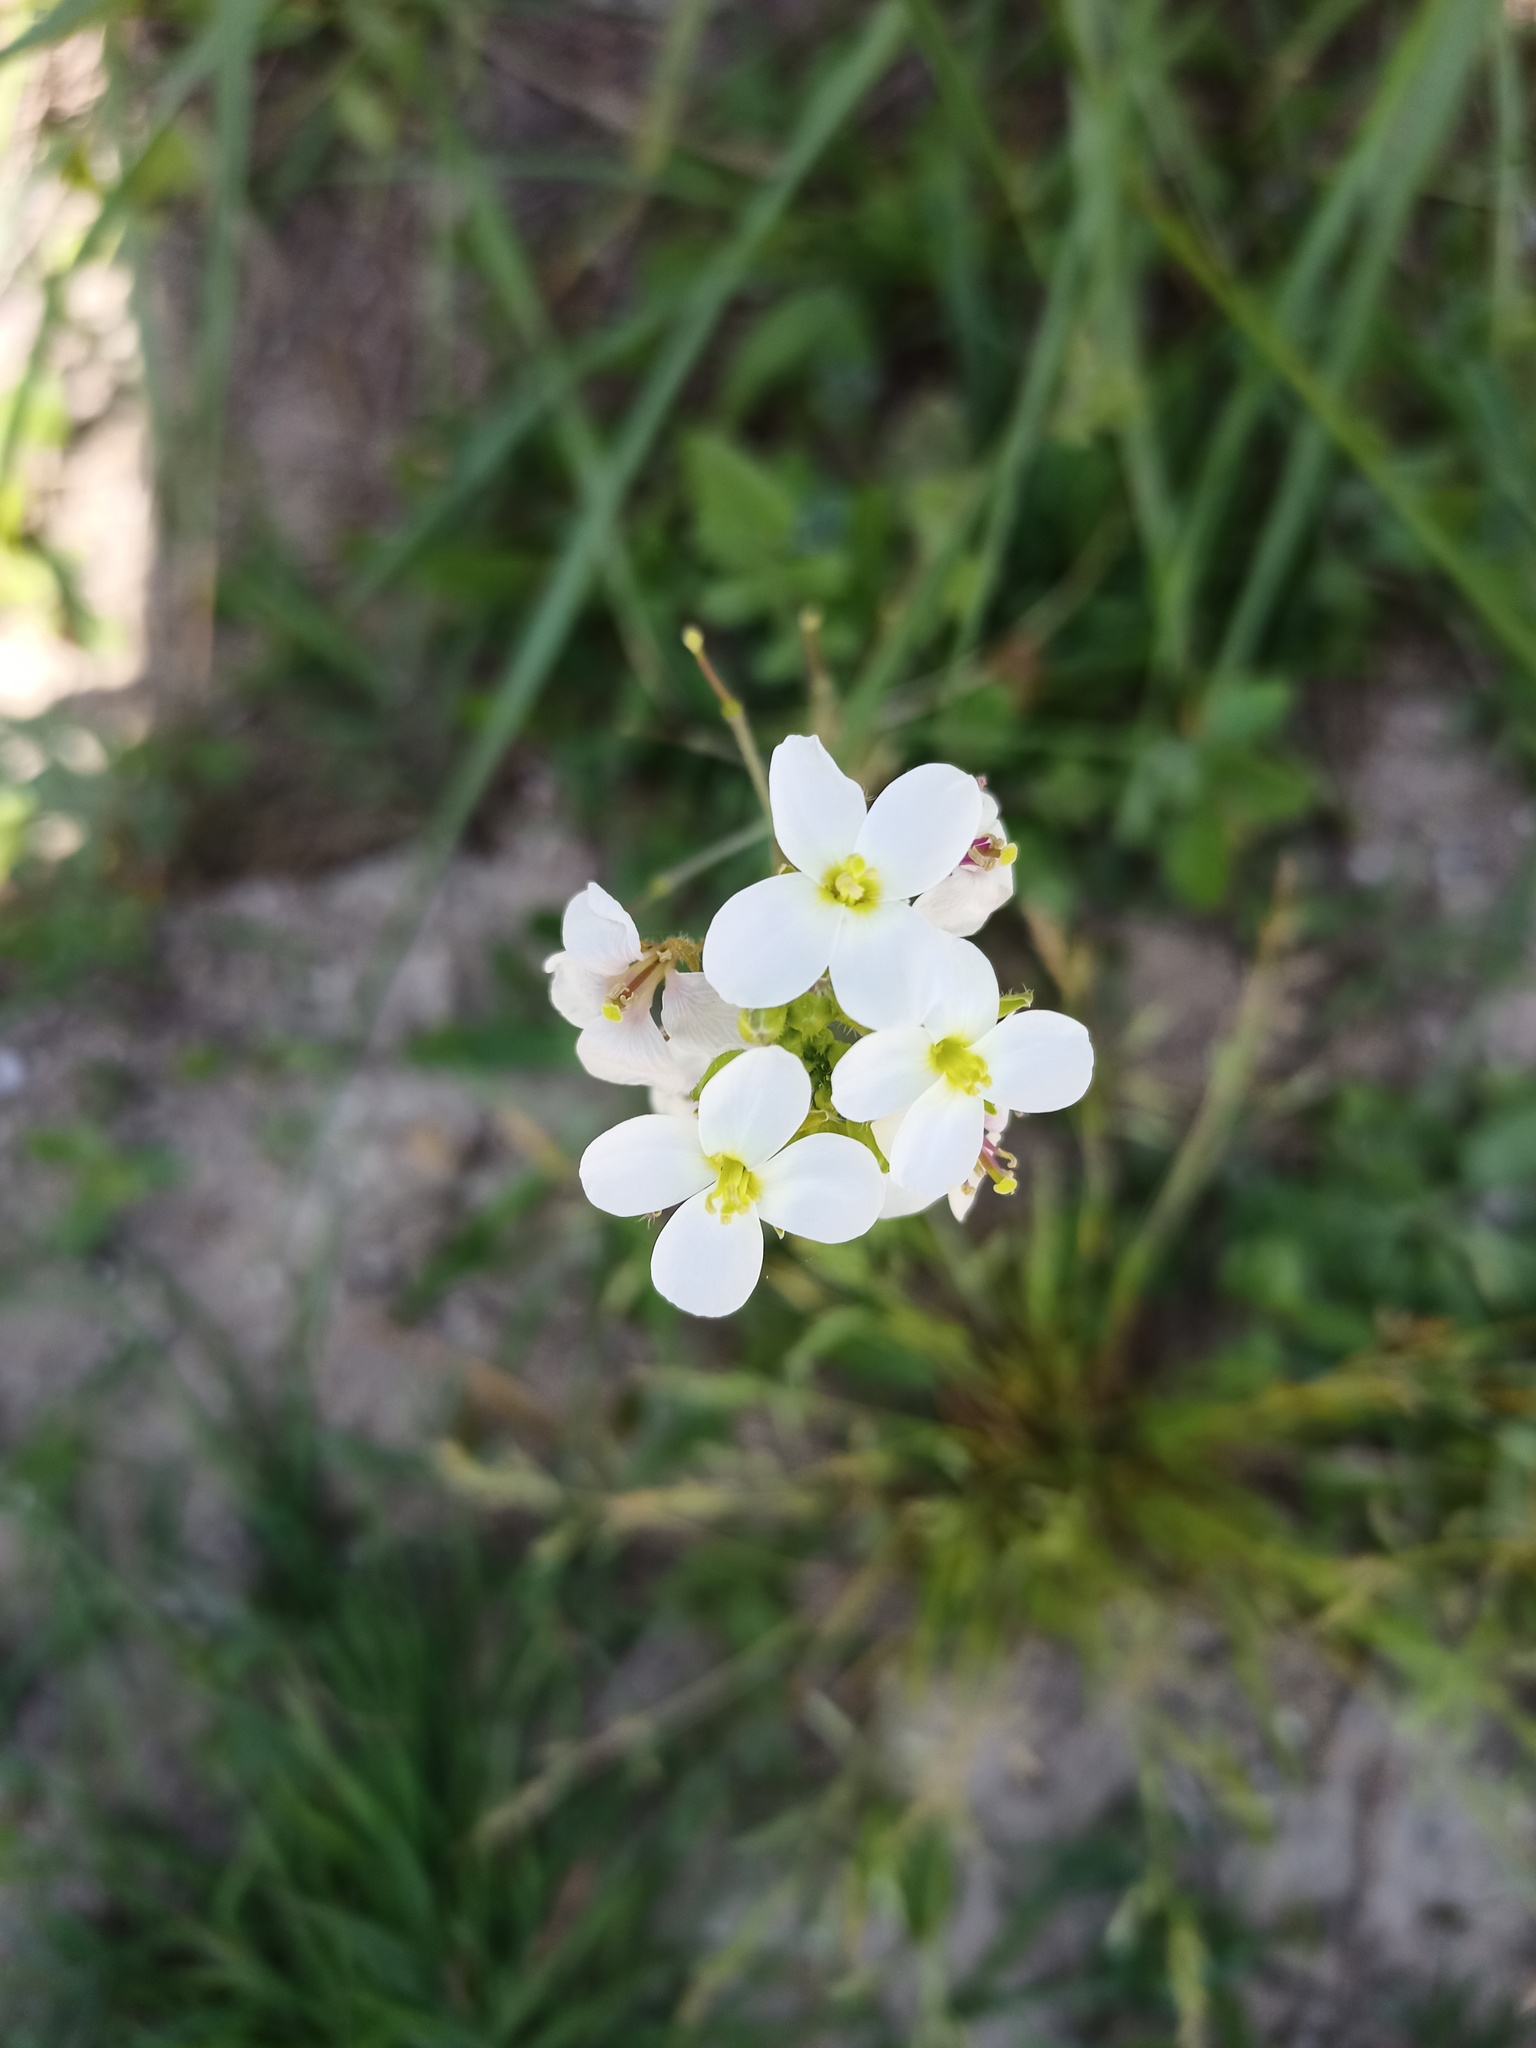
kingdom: Plantae
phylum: Tracheophyta
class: Magnoliopsida
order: Brassicales
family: Brassicaceae
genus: Diplotaxis
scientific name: Diplotaxis erucoides
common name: White rocket
